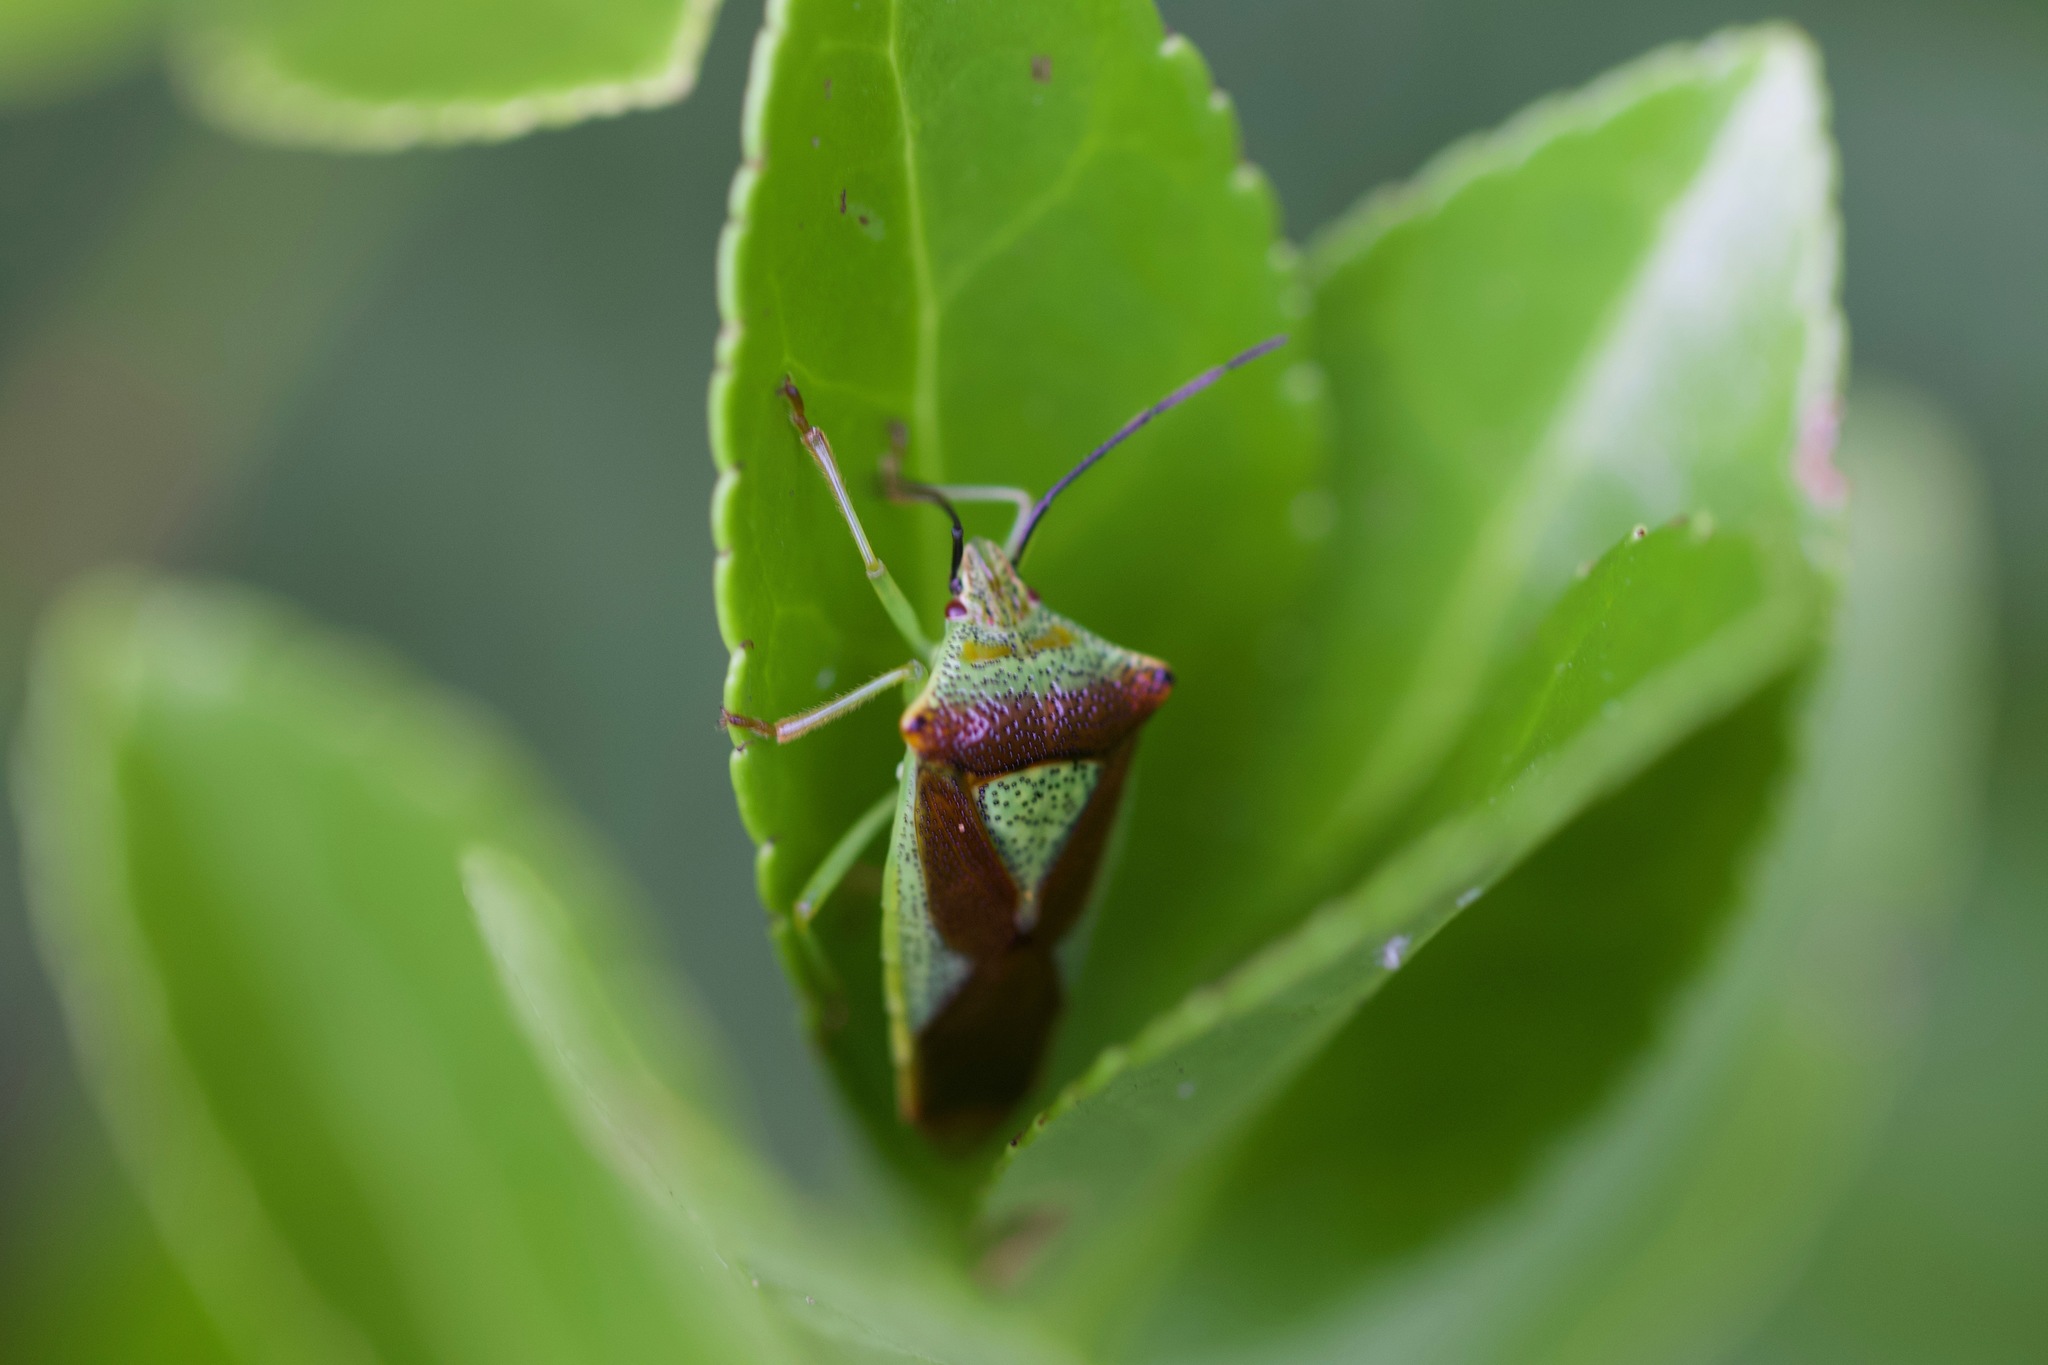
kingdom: Animalia
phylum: Arthropoda
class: Insecta
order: Hemiptera
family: Acanthosomatidae
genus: Acanthosoma
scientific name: Acanthosoma haemorrhoidale
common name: Hawthorn shieldbug
